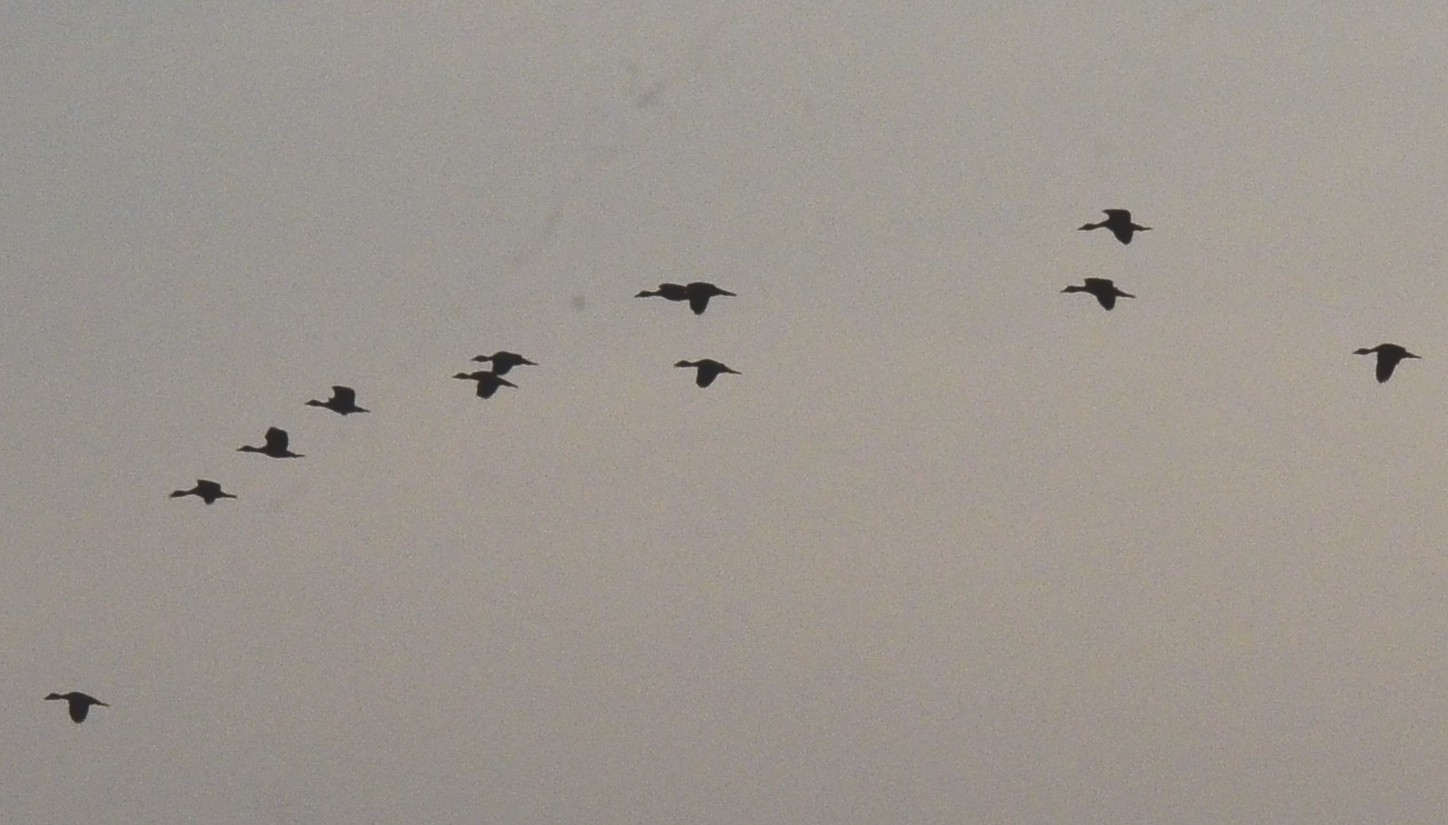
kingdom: Animalia
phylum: Chordata
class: Aves
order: Anseriformes
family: Anatidae
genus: Dendrocygna
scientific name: Dendrocygna javanica
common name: Lesser whistling-duck
